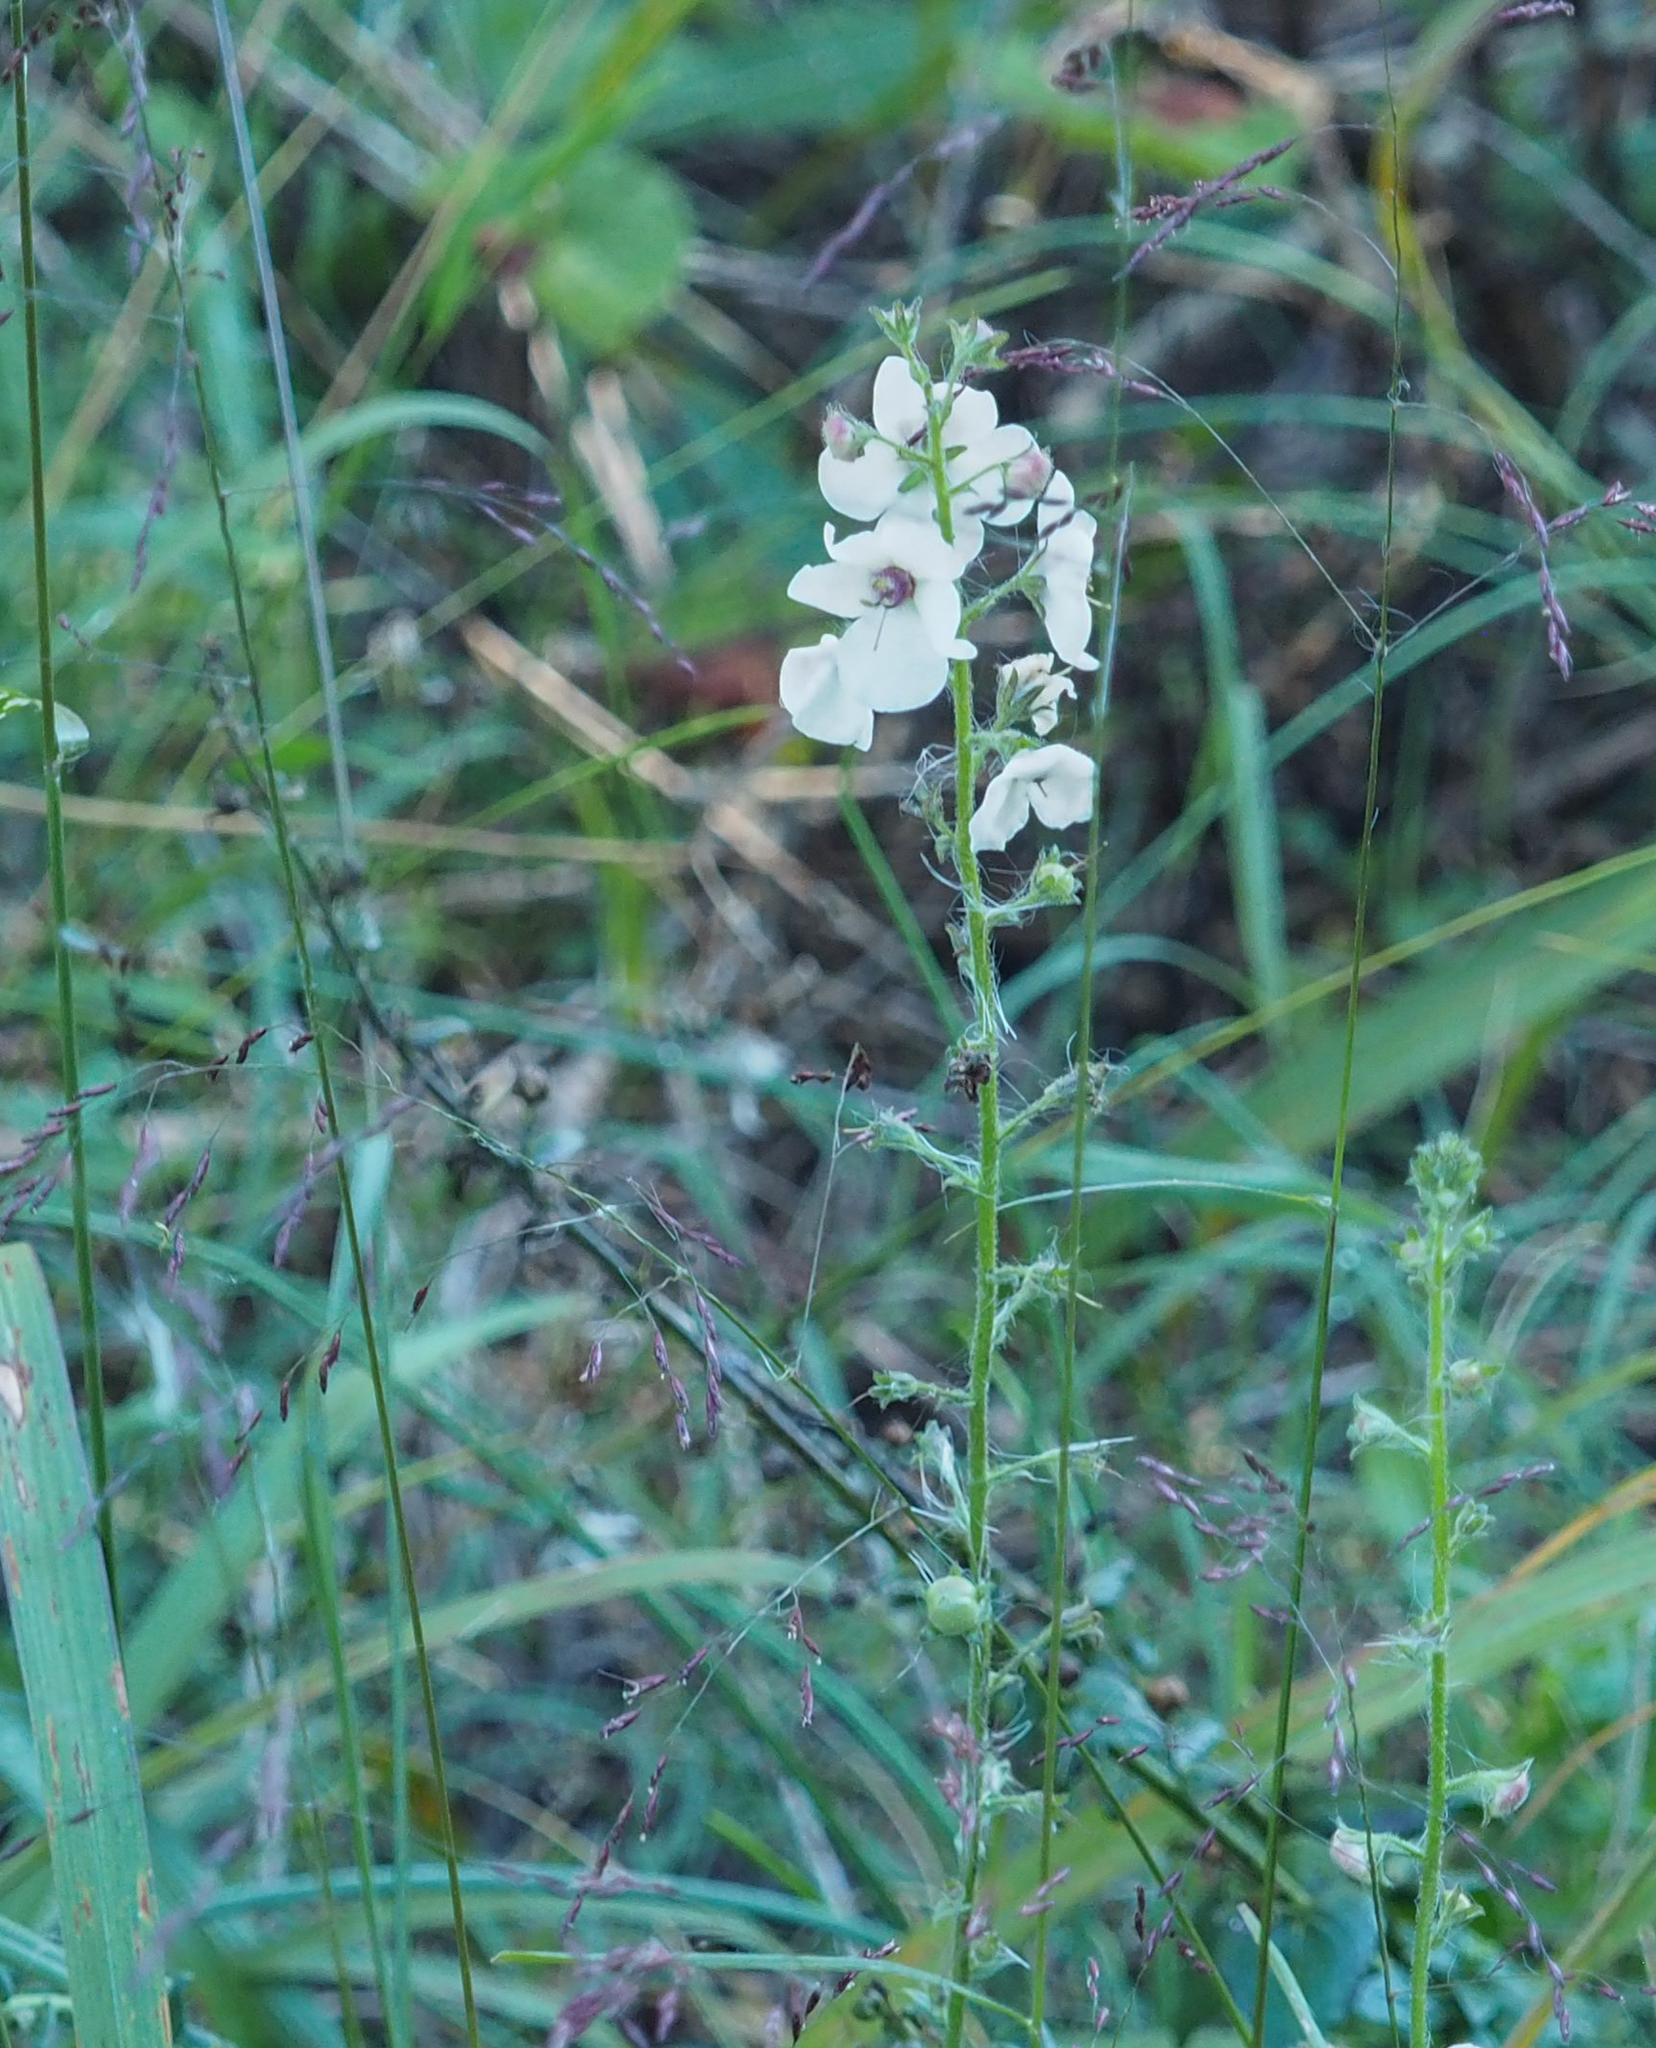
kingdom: Plantae
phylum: Tracheophyta
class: Magnoliopsida
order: Lamiales
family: Scrophulariaceae
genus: Verbascum
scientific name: Verbascum blattaria
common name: Moth mullein
